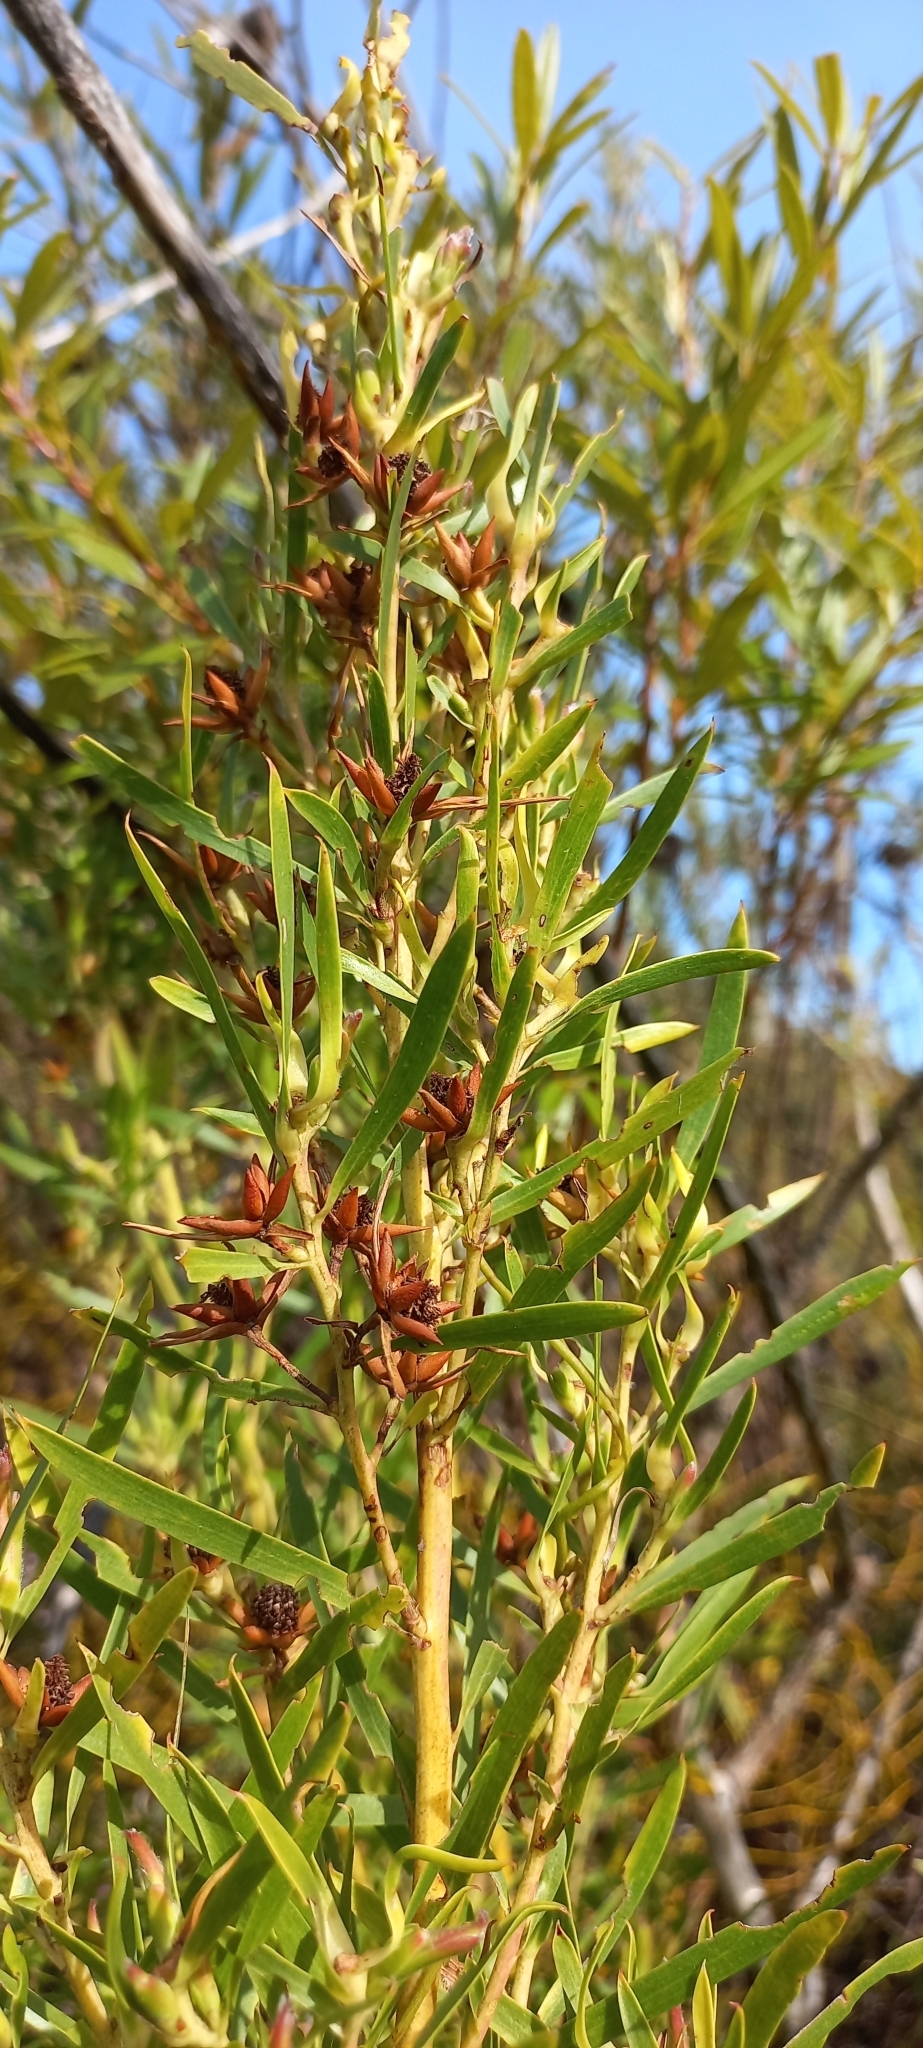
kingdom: Plantae
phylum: Tracheophyta
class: Magnoliopsida
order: Proteales
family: Proteaceae
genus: Leucadendron
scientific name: Leucadendron salicifolium
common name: Common stream conebush
